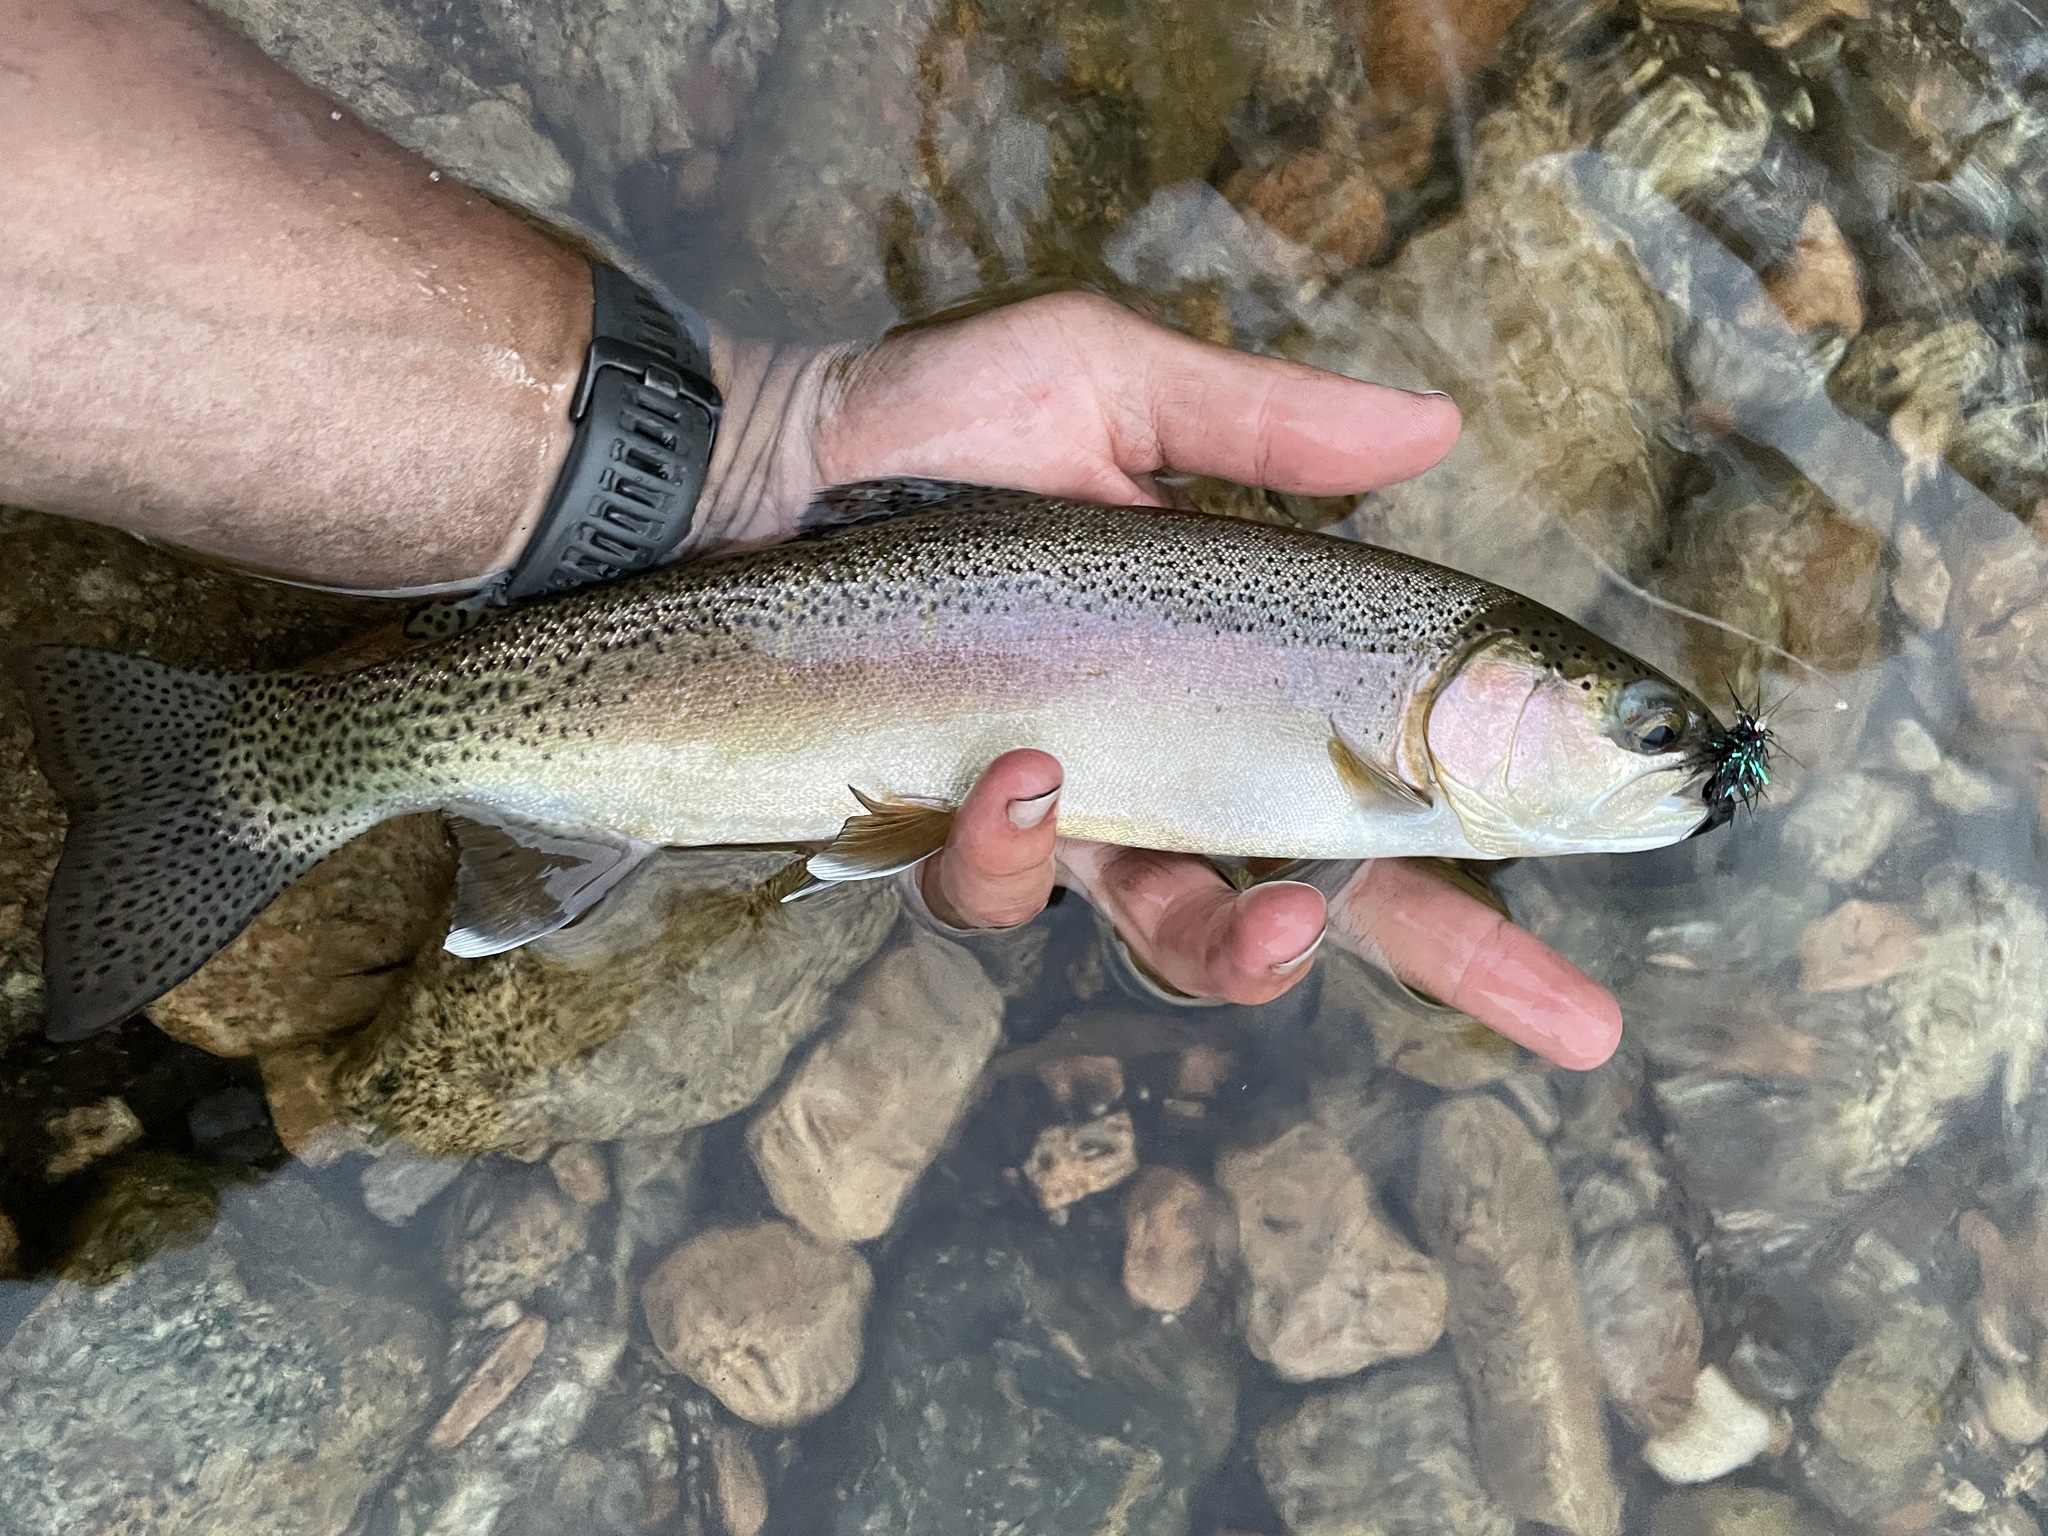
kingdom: Animalia
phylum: Chordata
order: Salmoniformes
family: Salmonidae
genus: Oncorhynchus
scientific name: Oncorhynchus mykiss
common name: Rainbow trout
